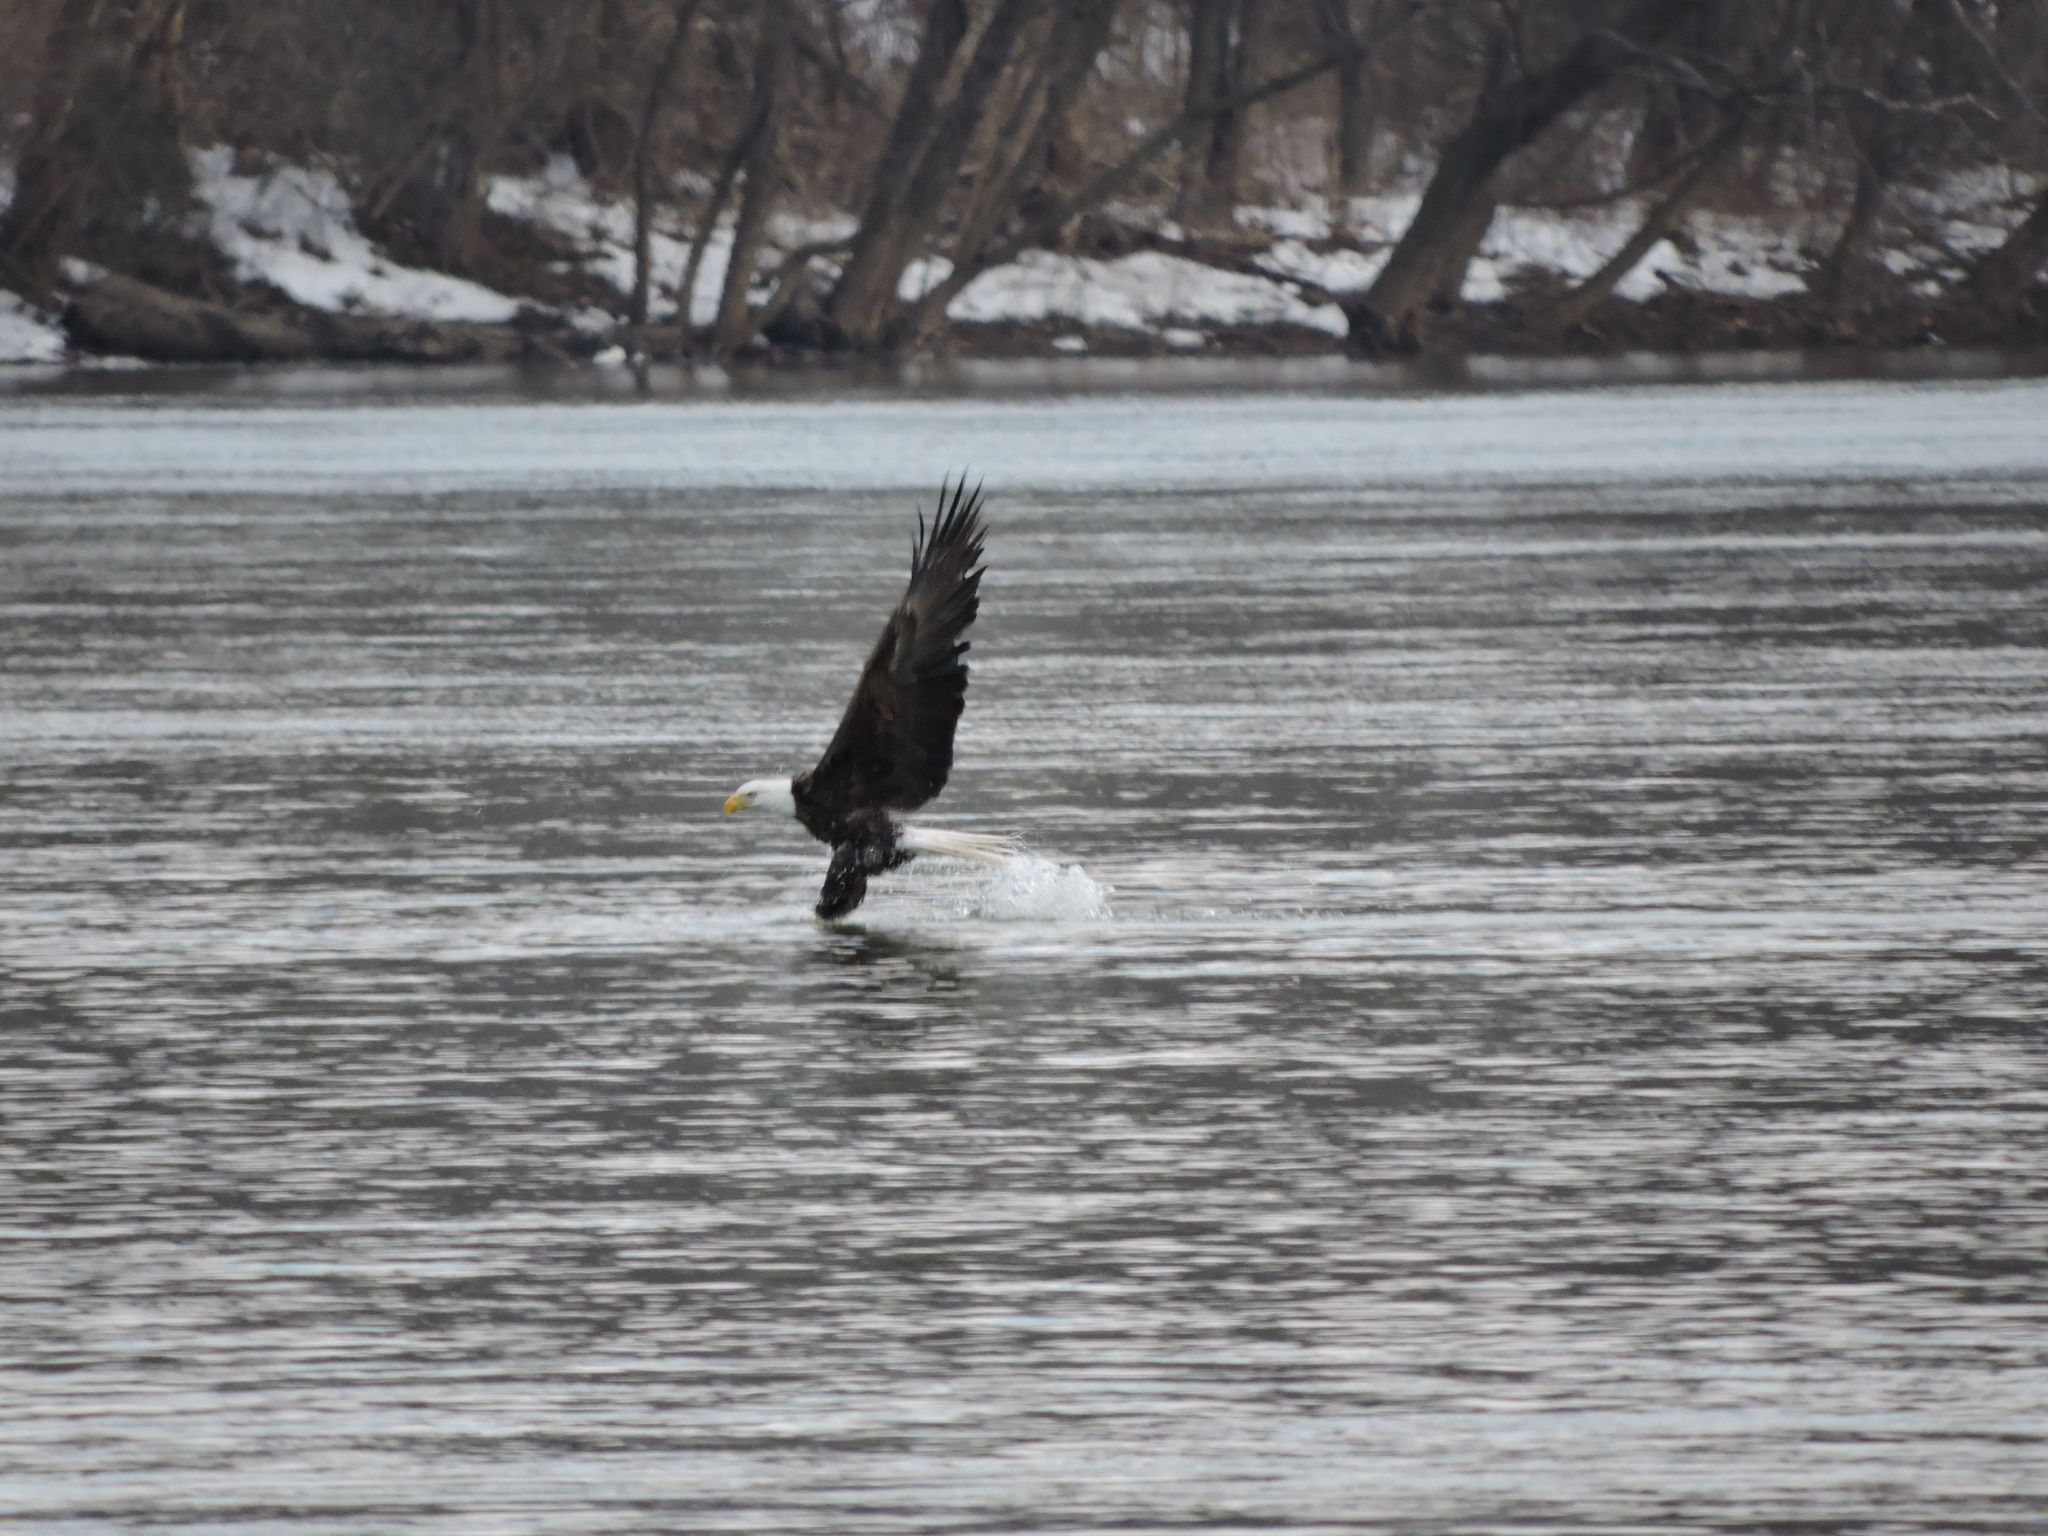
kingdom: Animalia
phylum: Chordata
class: Aves
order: Accipitriformes
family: Accipitridae
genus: Haliaeetus
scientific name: Haliaeetus leucocephalus
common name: Bald eagle
